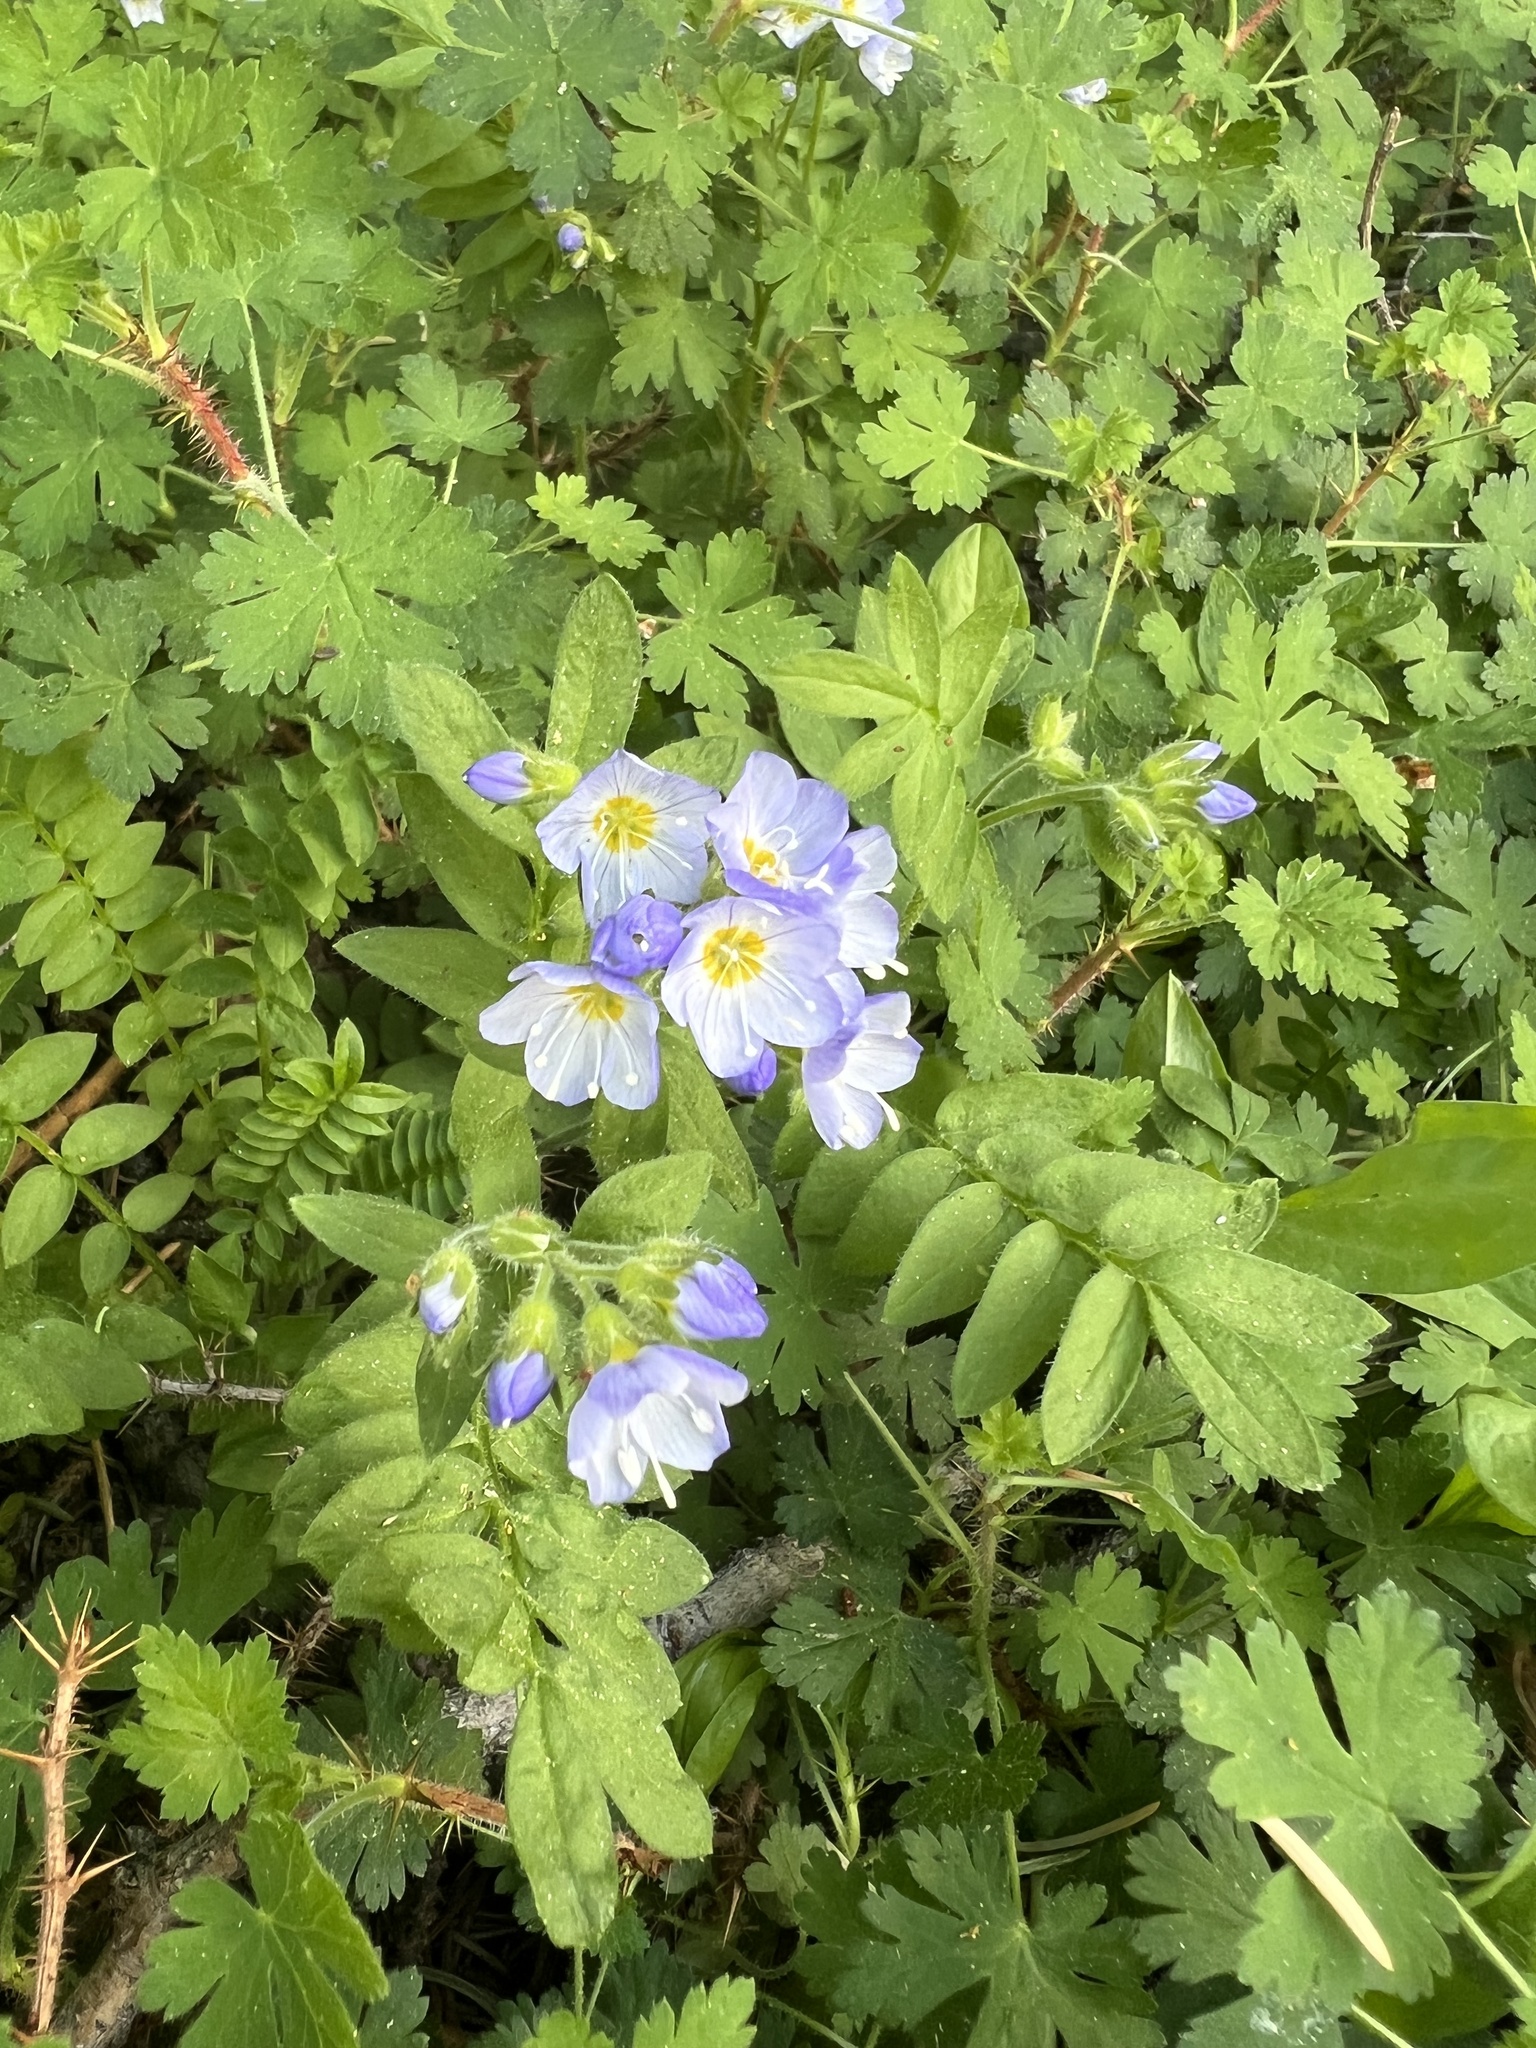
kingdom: Plantae
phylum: Tracheophyta
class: Magnoliopsida
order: Ericales
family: Polemoniaceae
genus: Polemonium
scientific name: Polemonium pulcherrimum
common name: Short jacob's-ladder
